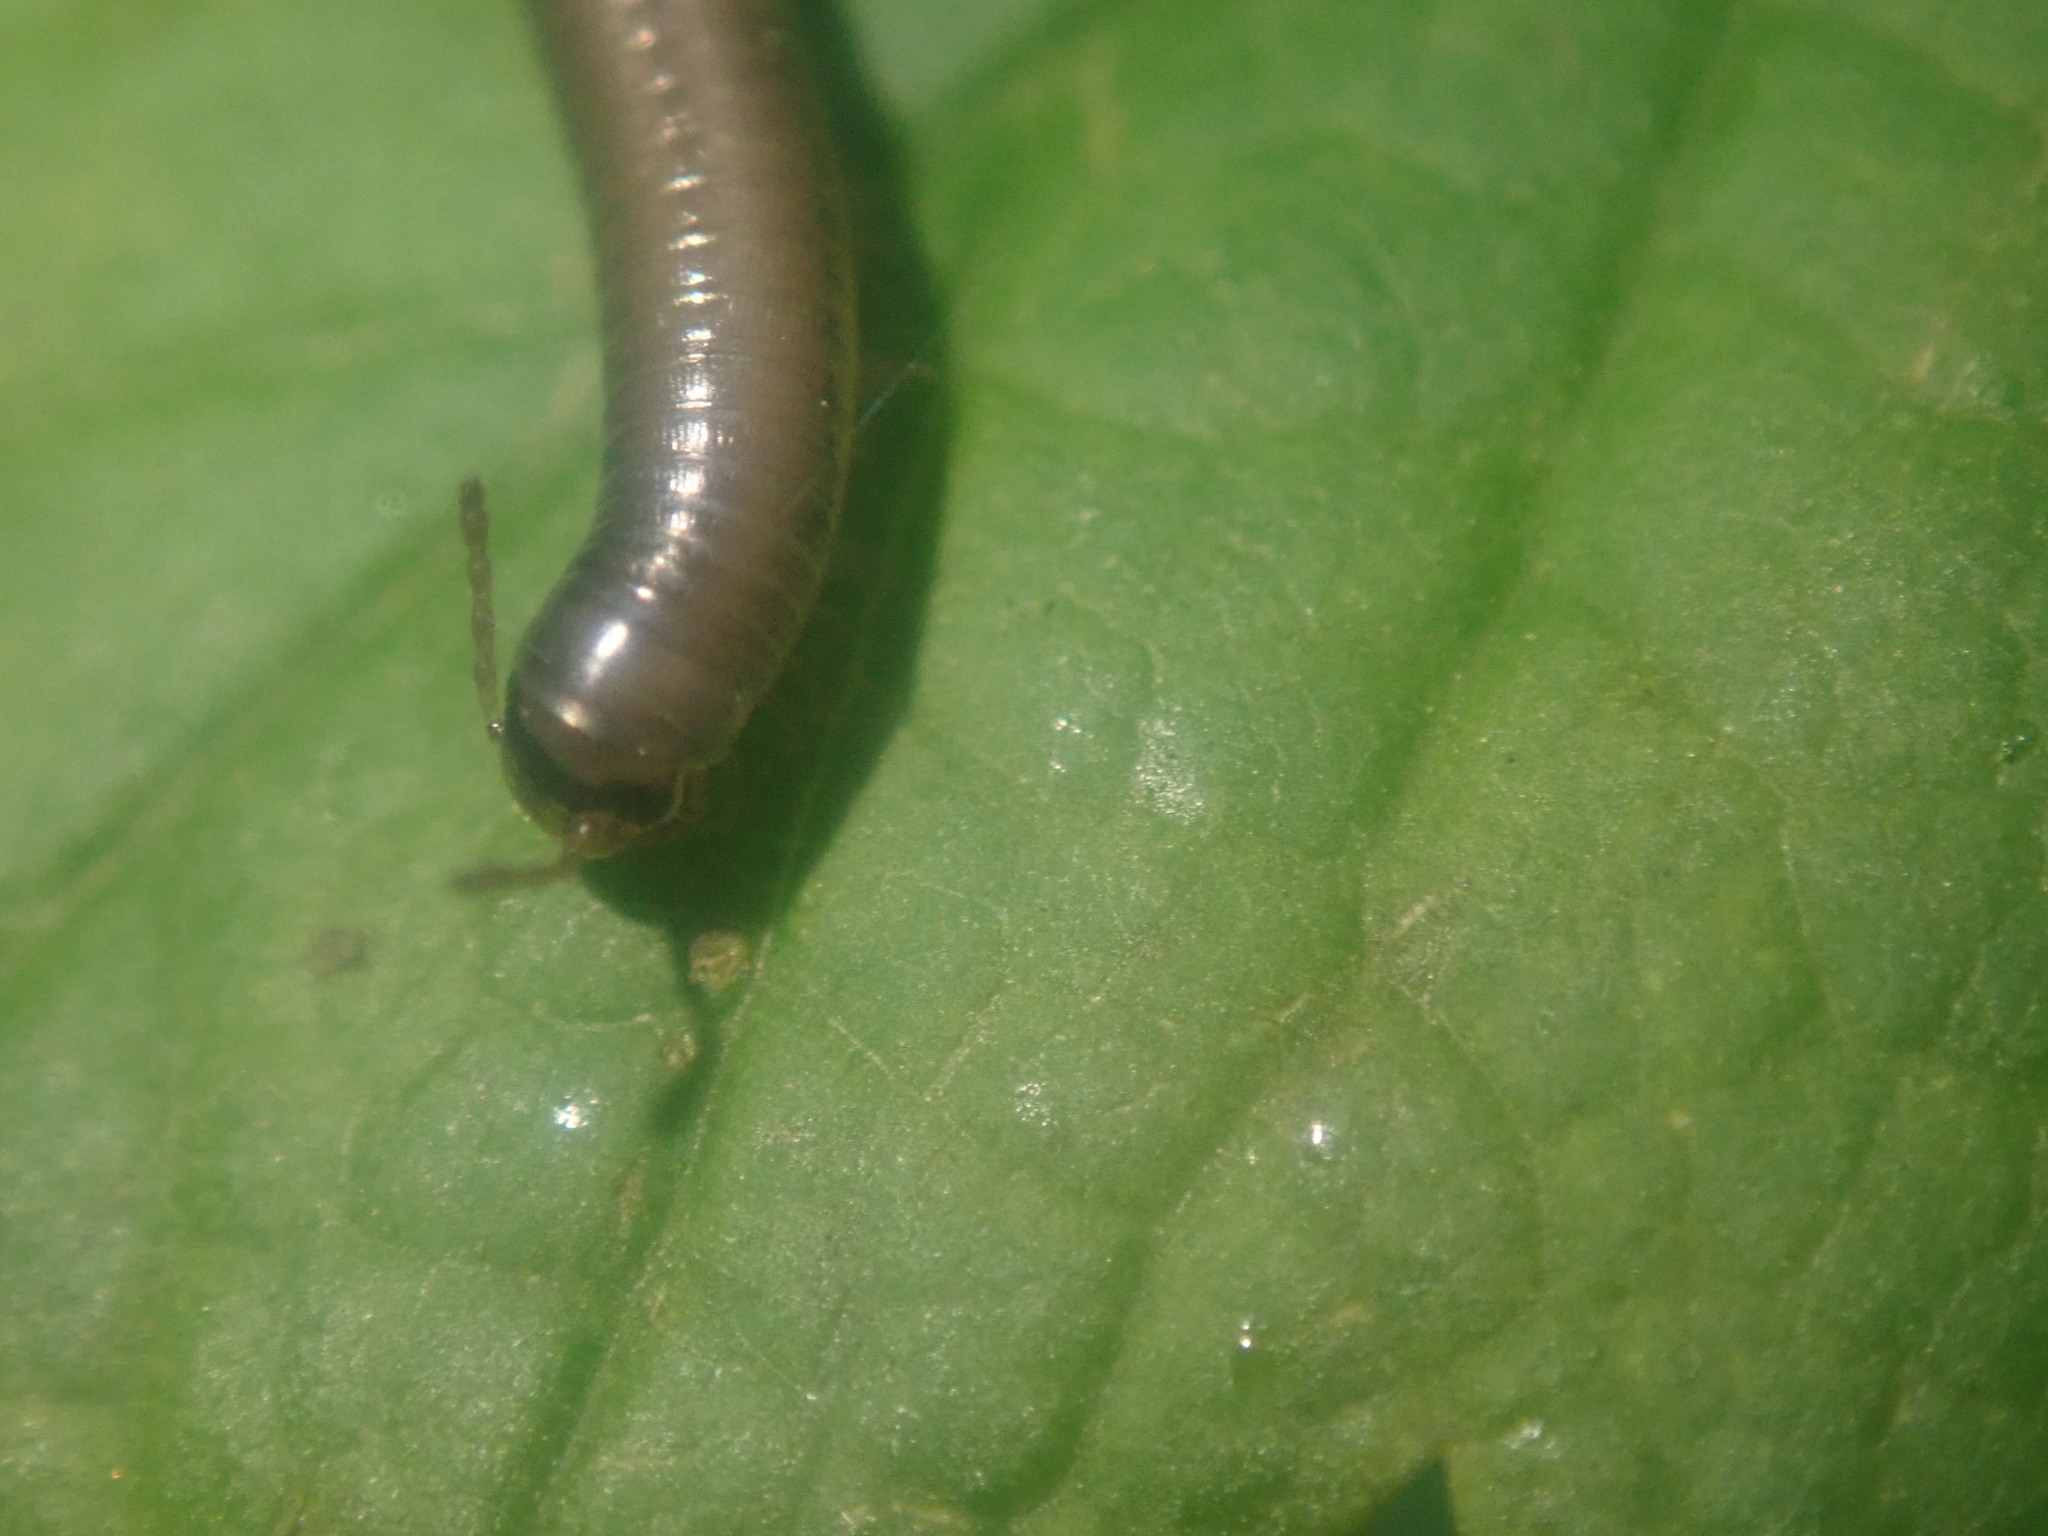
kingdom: Animalia
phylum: Arthropoda
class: Diplopoda
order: Julida
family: Julidae
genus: Ommatoiulus
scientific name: Ommatoiulus moreleti
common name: Portuguese millipede
